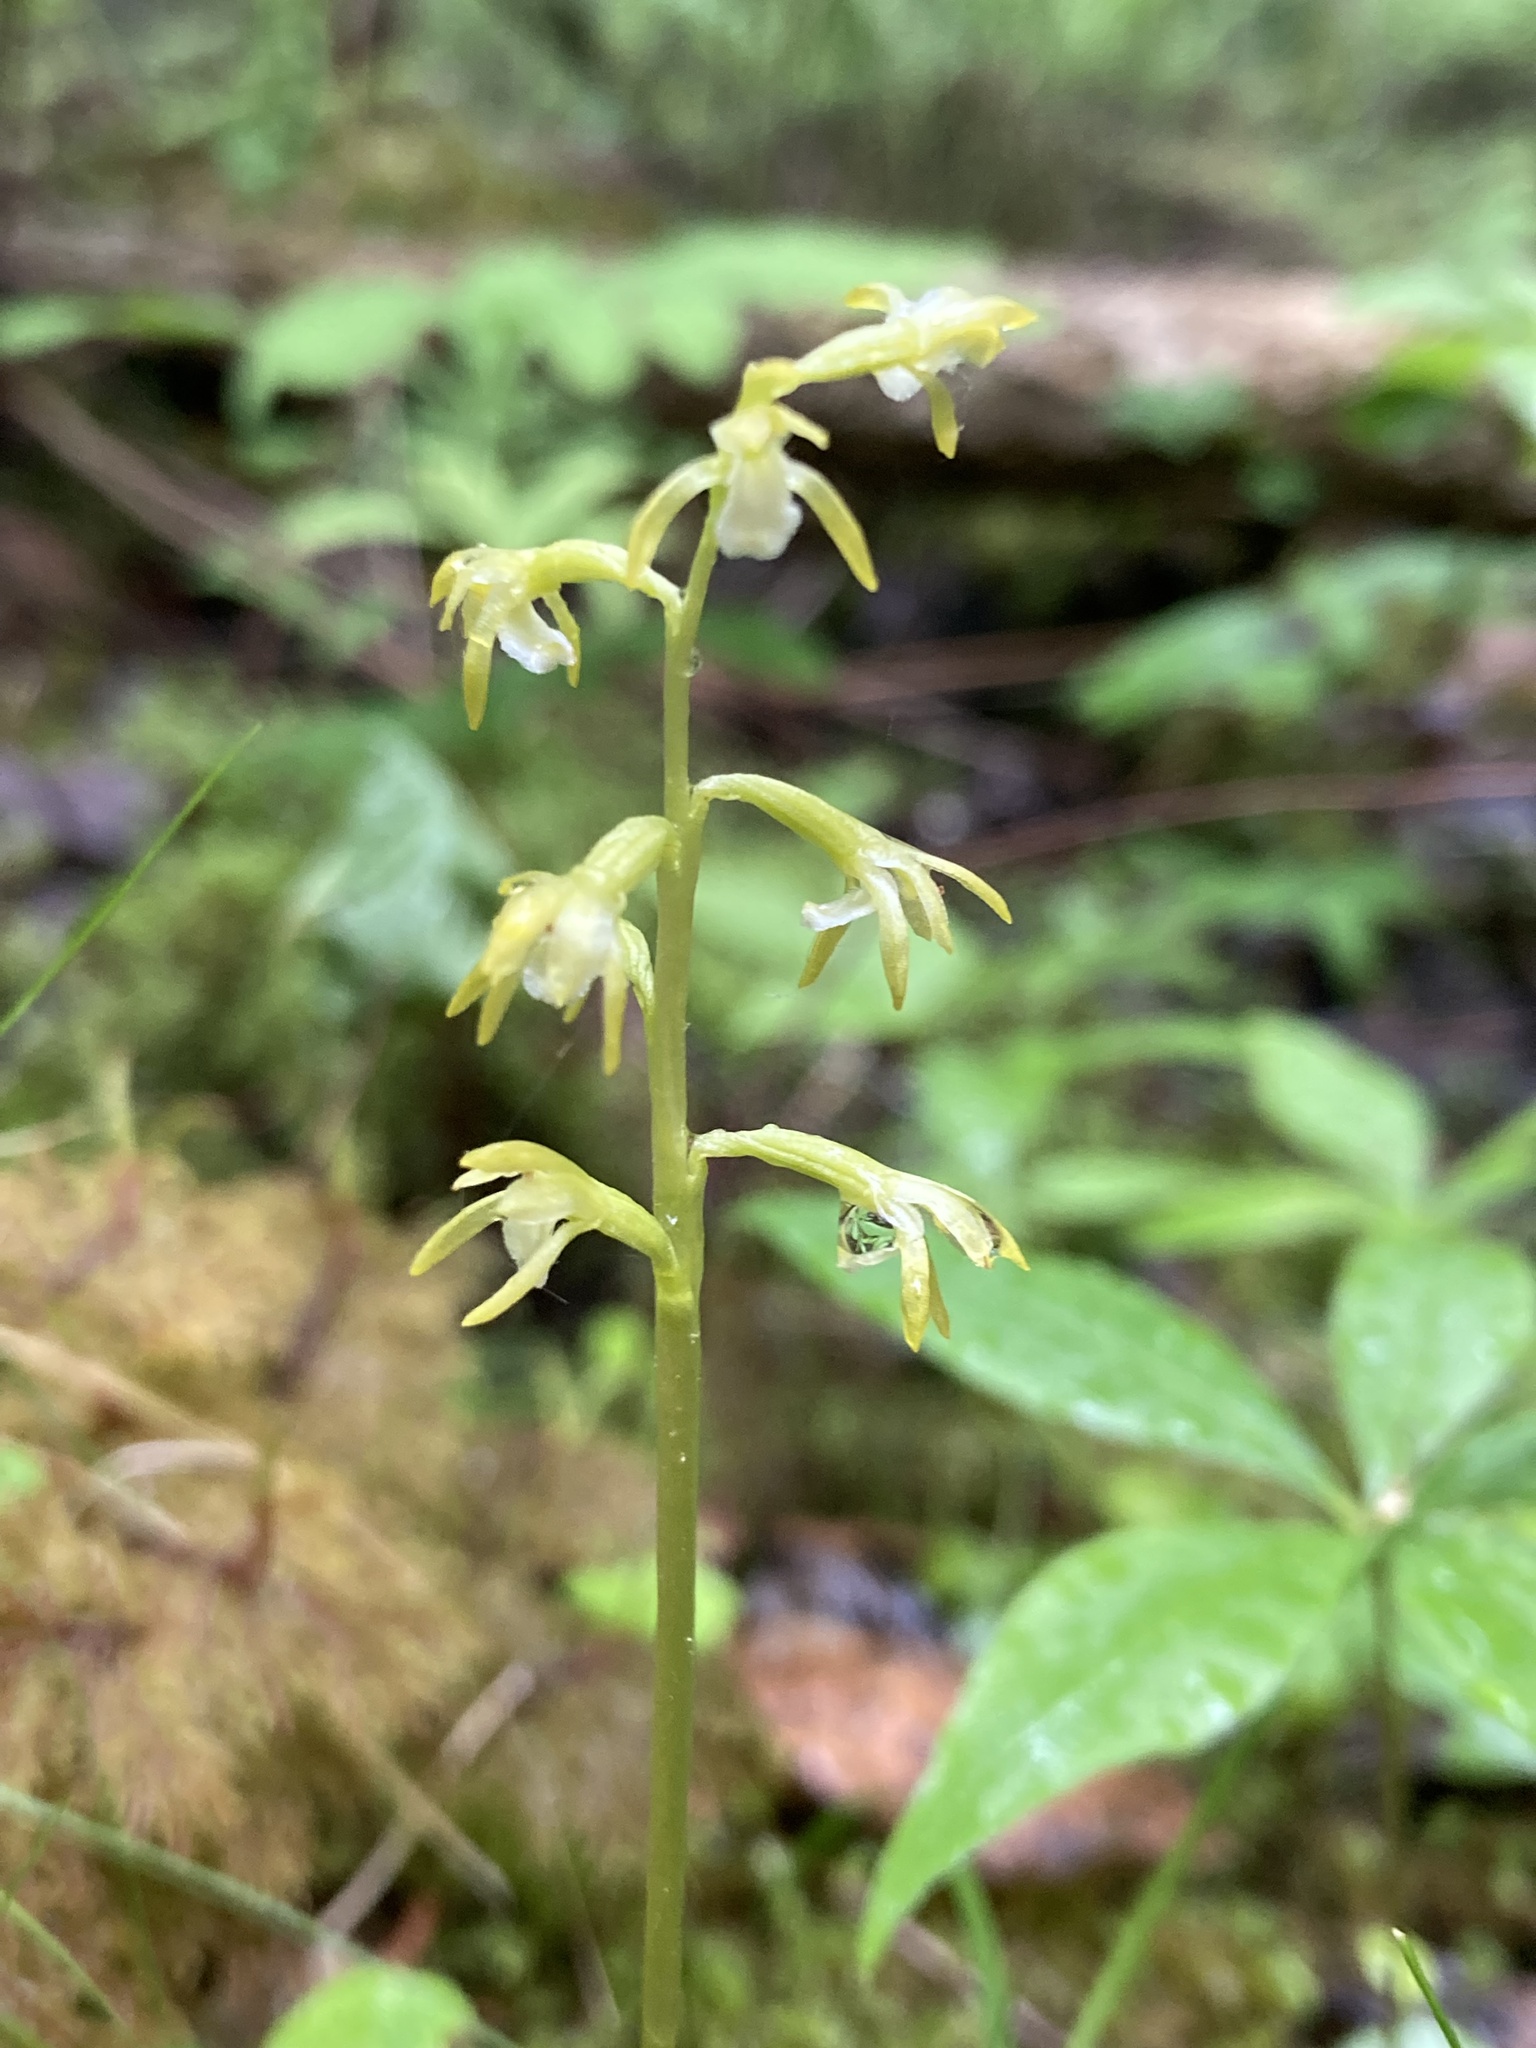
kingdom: Plantae
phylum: Tracheophyta
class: Liliopsida
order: Asparagales
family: Orchidaceae
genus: Corallorhiza
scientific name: Corallorhiza trifida
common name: Yellow coralroot
